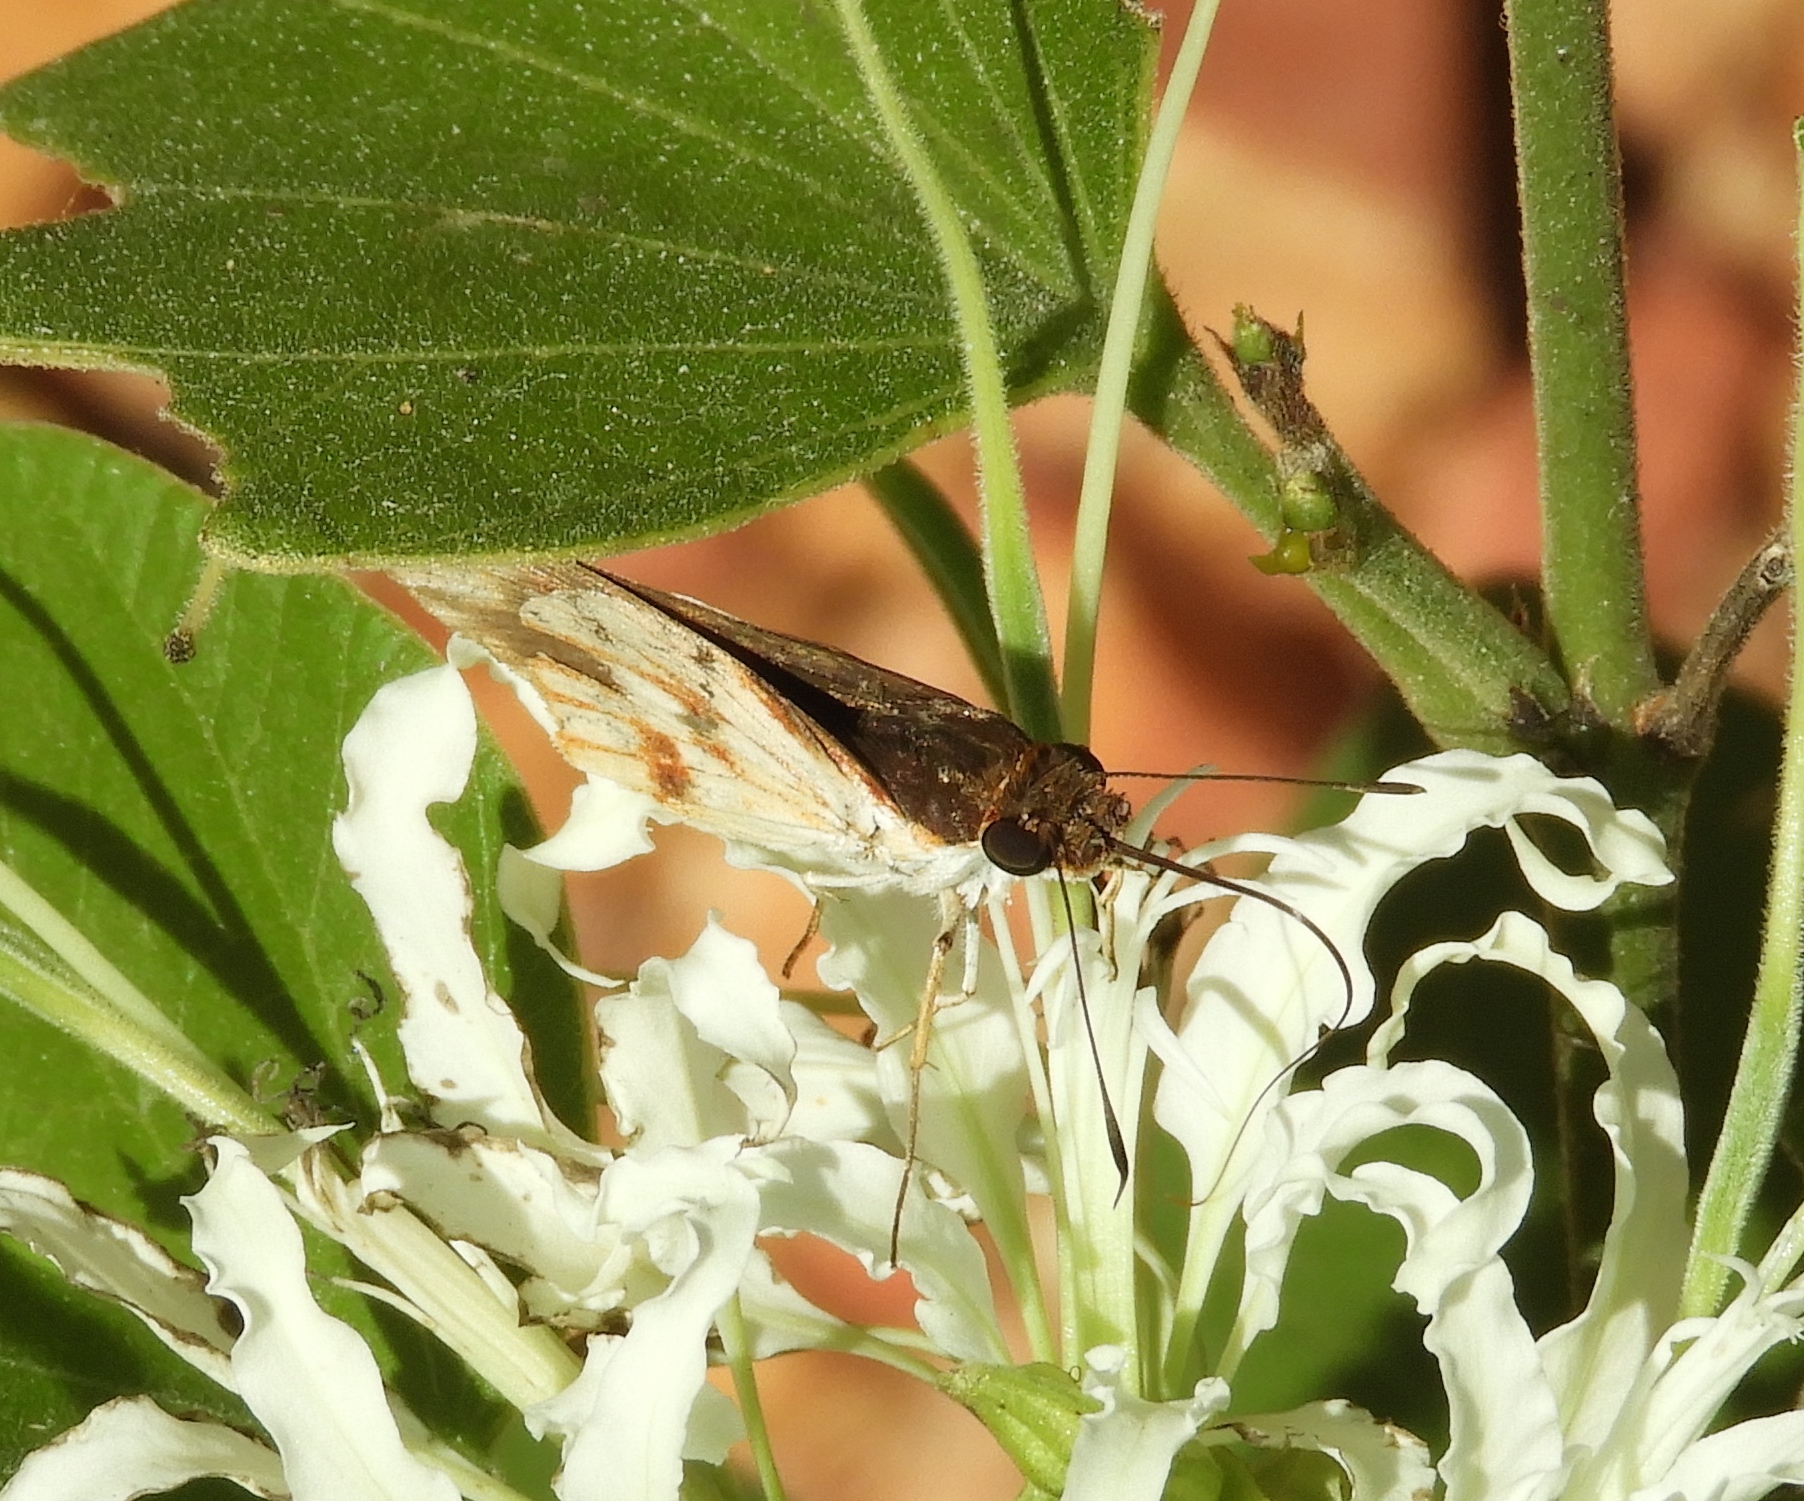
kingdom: Animalia
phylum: Arthropoda
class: Insecta
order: Lepidoptera
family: Hesperiidae
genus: Troyus
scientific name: Troyus fantasos
